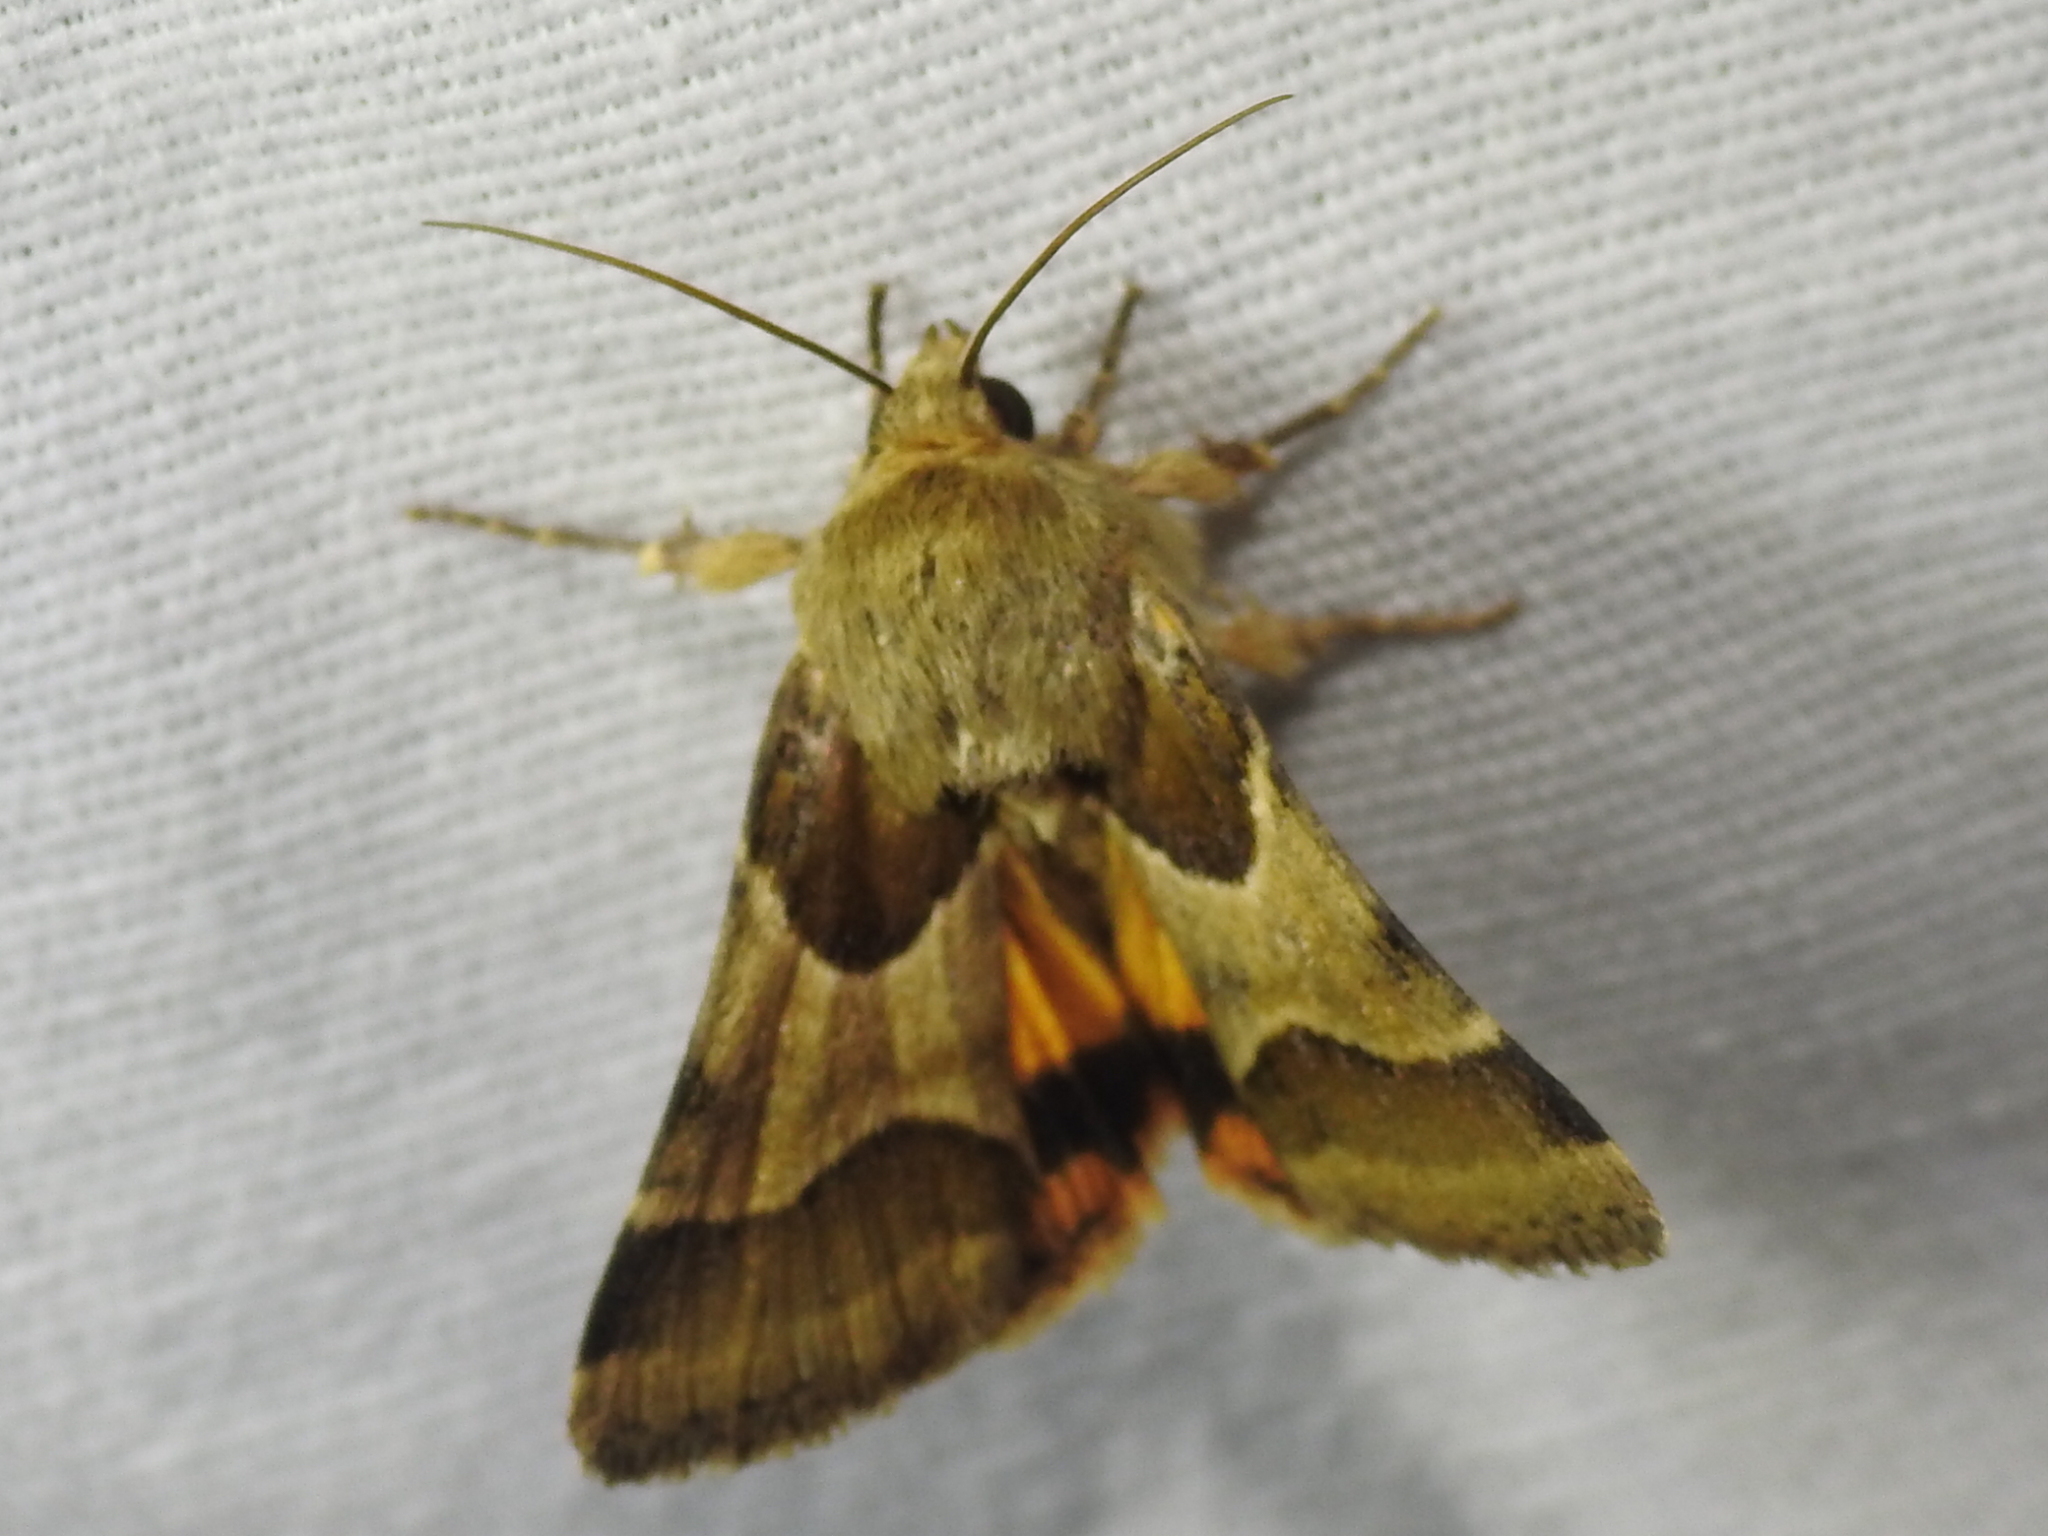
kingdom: Animalia
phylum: Arthropoda
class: Insecta
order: Lepidoptera
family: Noctuidae
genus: Schinia
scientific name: Schinia jaguarina
